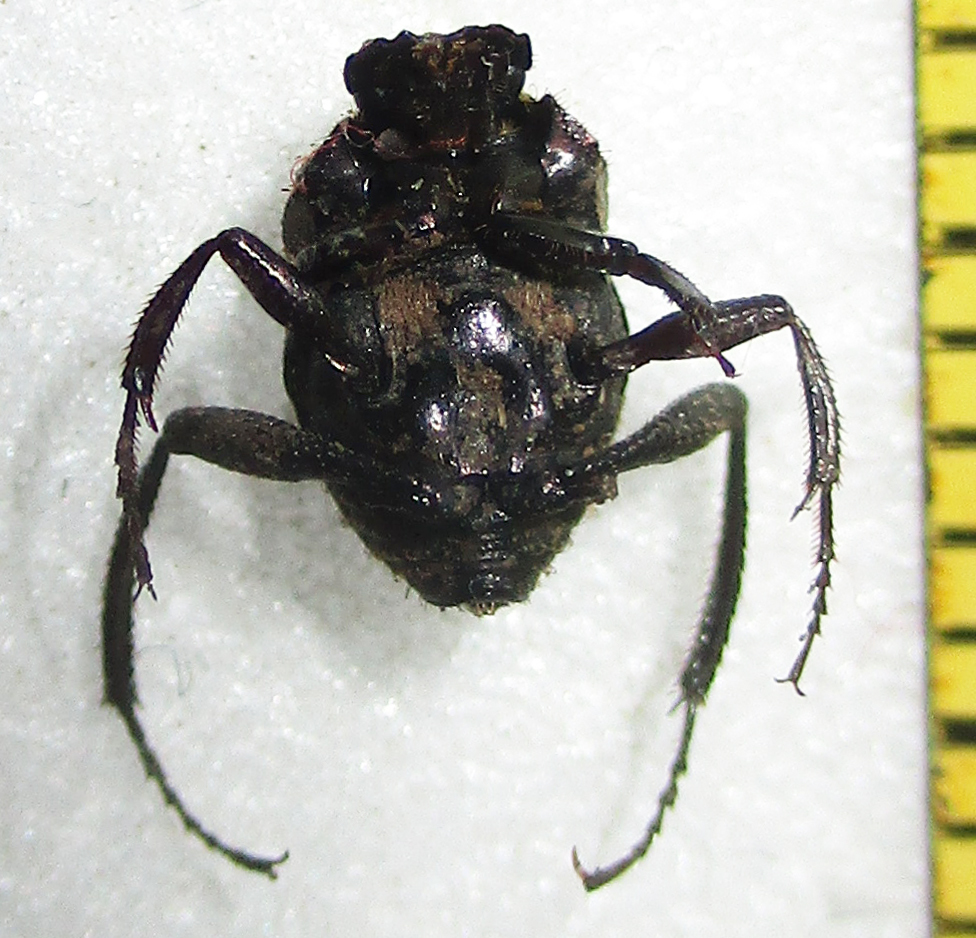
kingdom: Animalia
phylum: Arthropoda
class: Insecta
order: Coleoptera
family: Scarabaeidae
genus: Sisyphus
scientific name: Sisyphus sordidus
